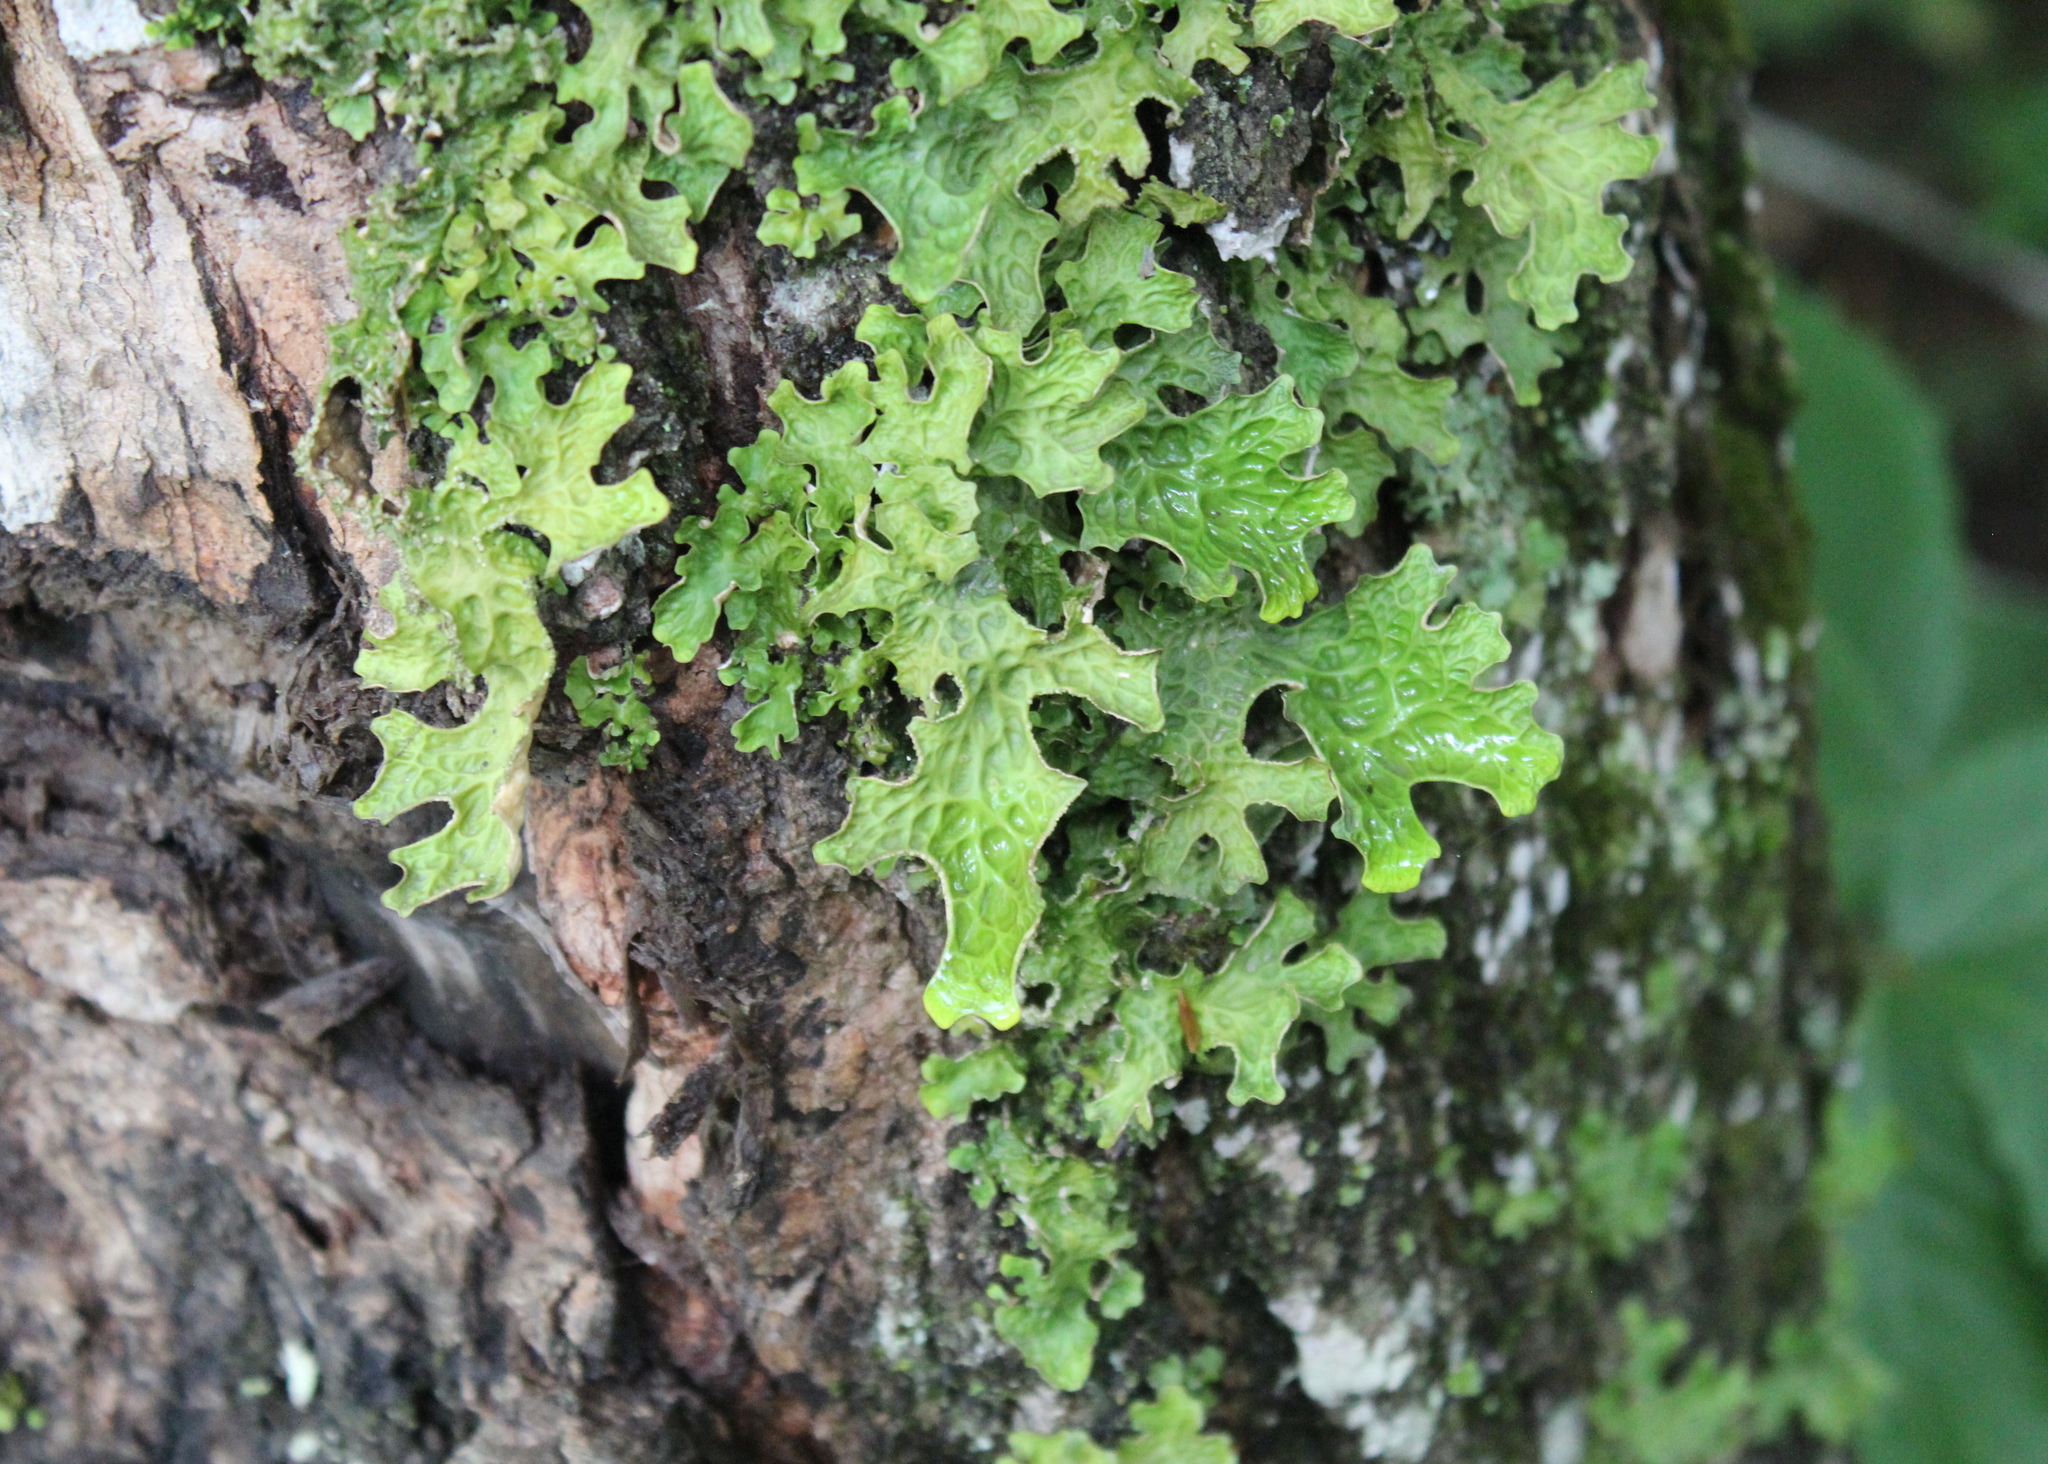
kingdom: Fungi
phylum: Ascomycota
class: Lecanoromycetes
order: Peltigerales
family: Lobariaceae
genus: Lobaria
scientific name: Lobaria pulmonaria
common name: Lungwort
